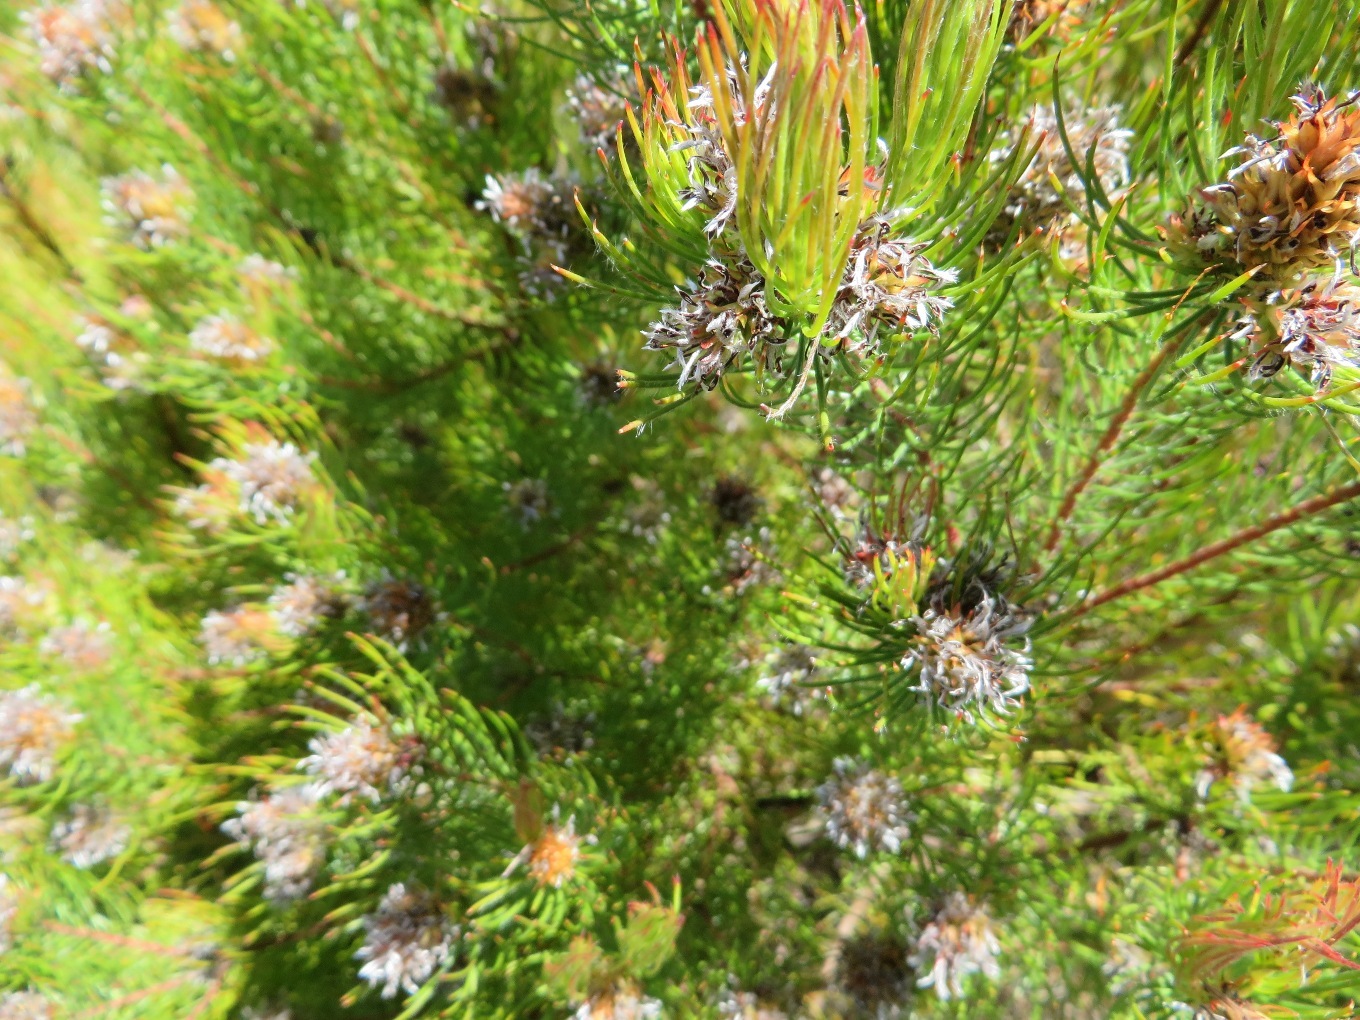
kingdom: Plantae
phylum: Tracheophyta
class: Magnoliopsida
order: Proteales
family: Proteaceae
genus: Spatalla
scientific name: Spatalla setacea
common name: Needle-leaf spoon
